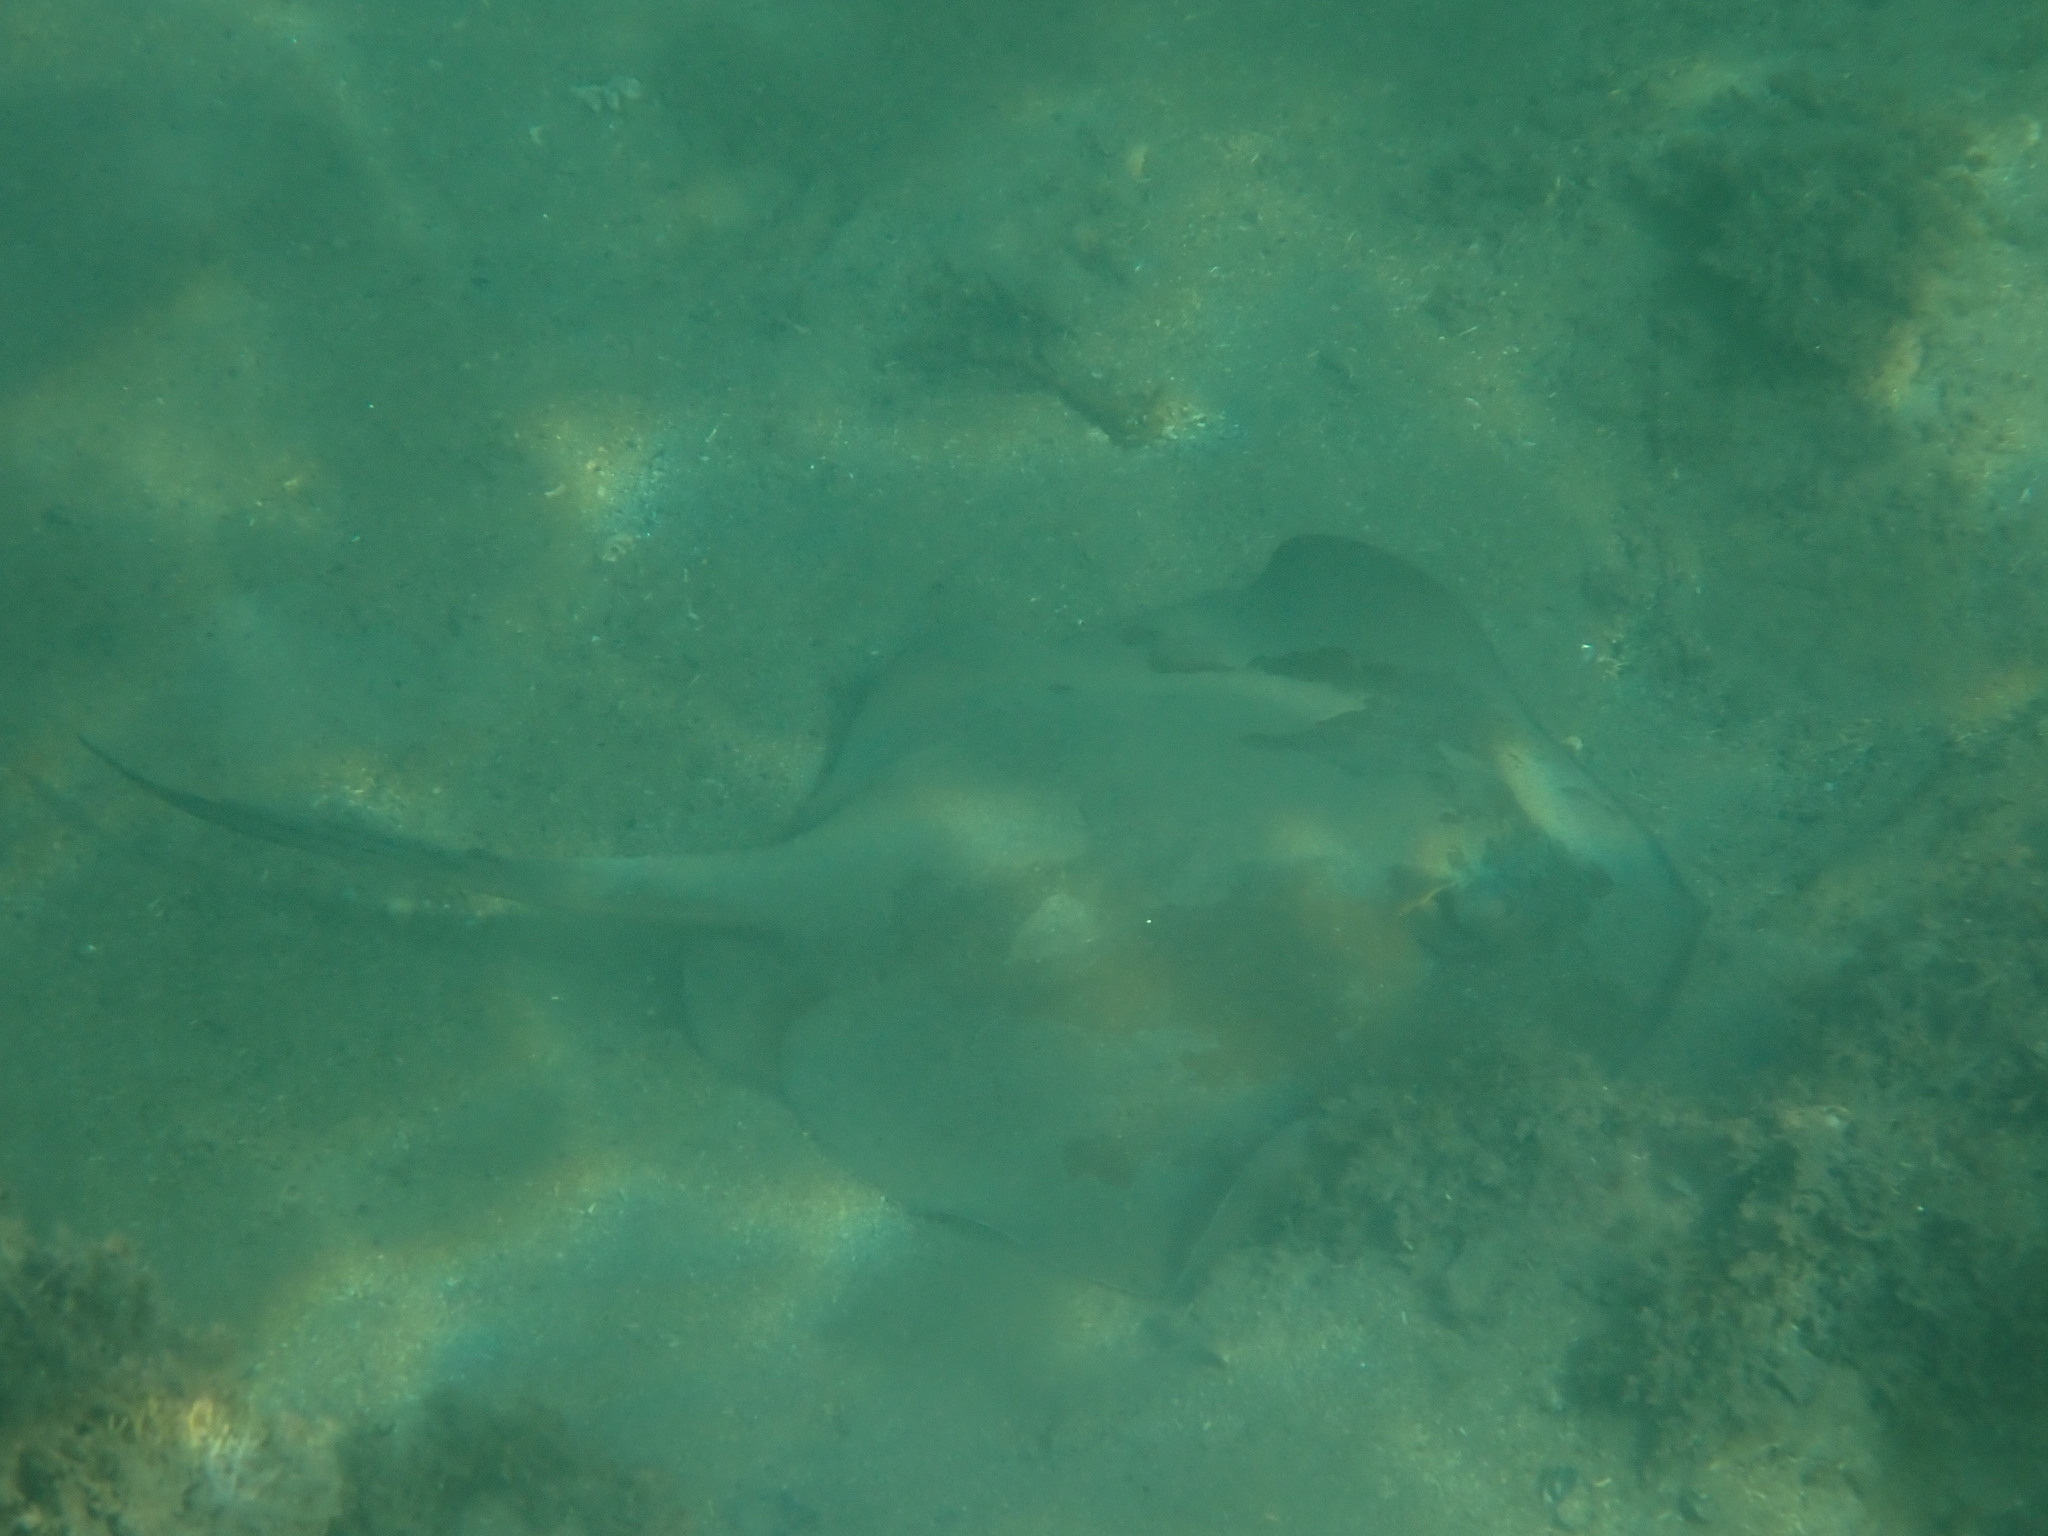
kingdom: Animalia
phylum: Chordata
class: Elasmobranchii
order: Myliobatiformes
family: Dasyatidae
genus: Bathytoshia
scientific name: Bathytoshia brevicaudata
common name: Short-tail stingray
